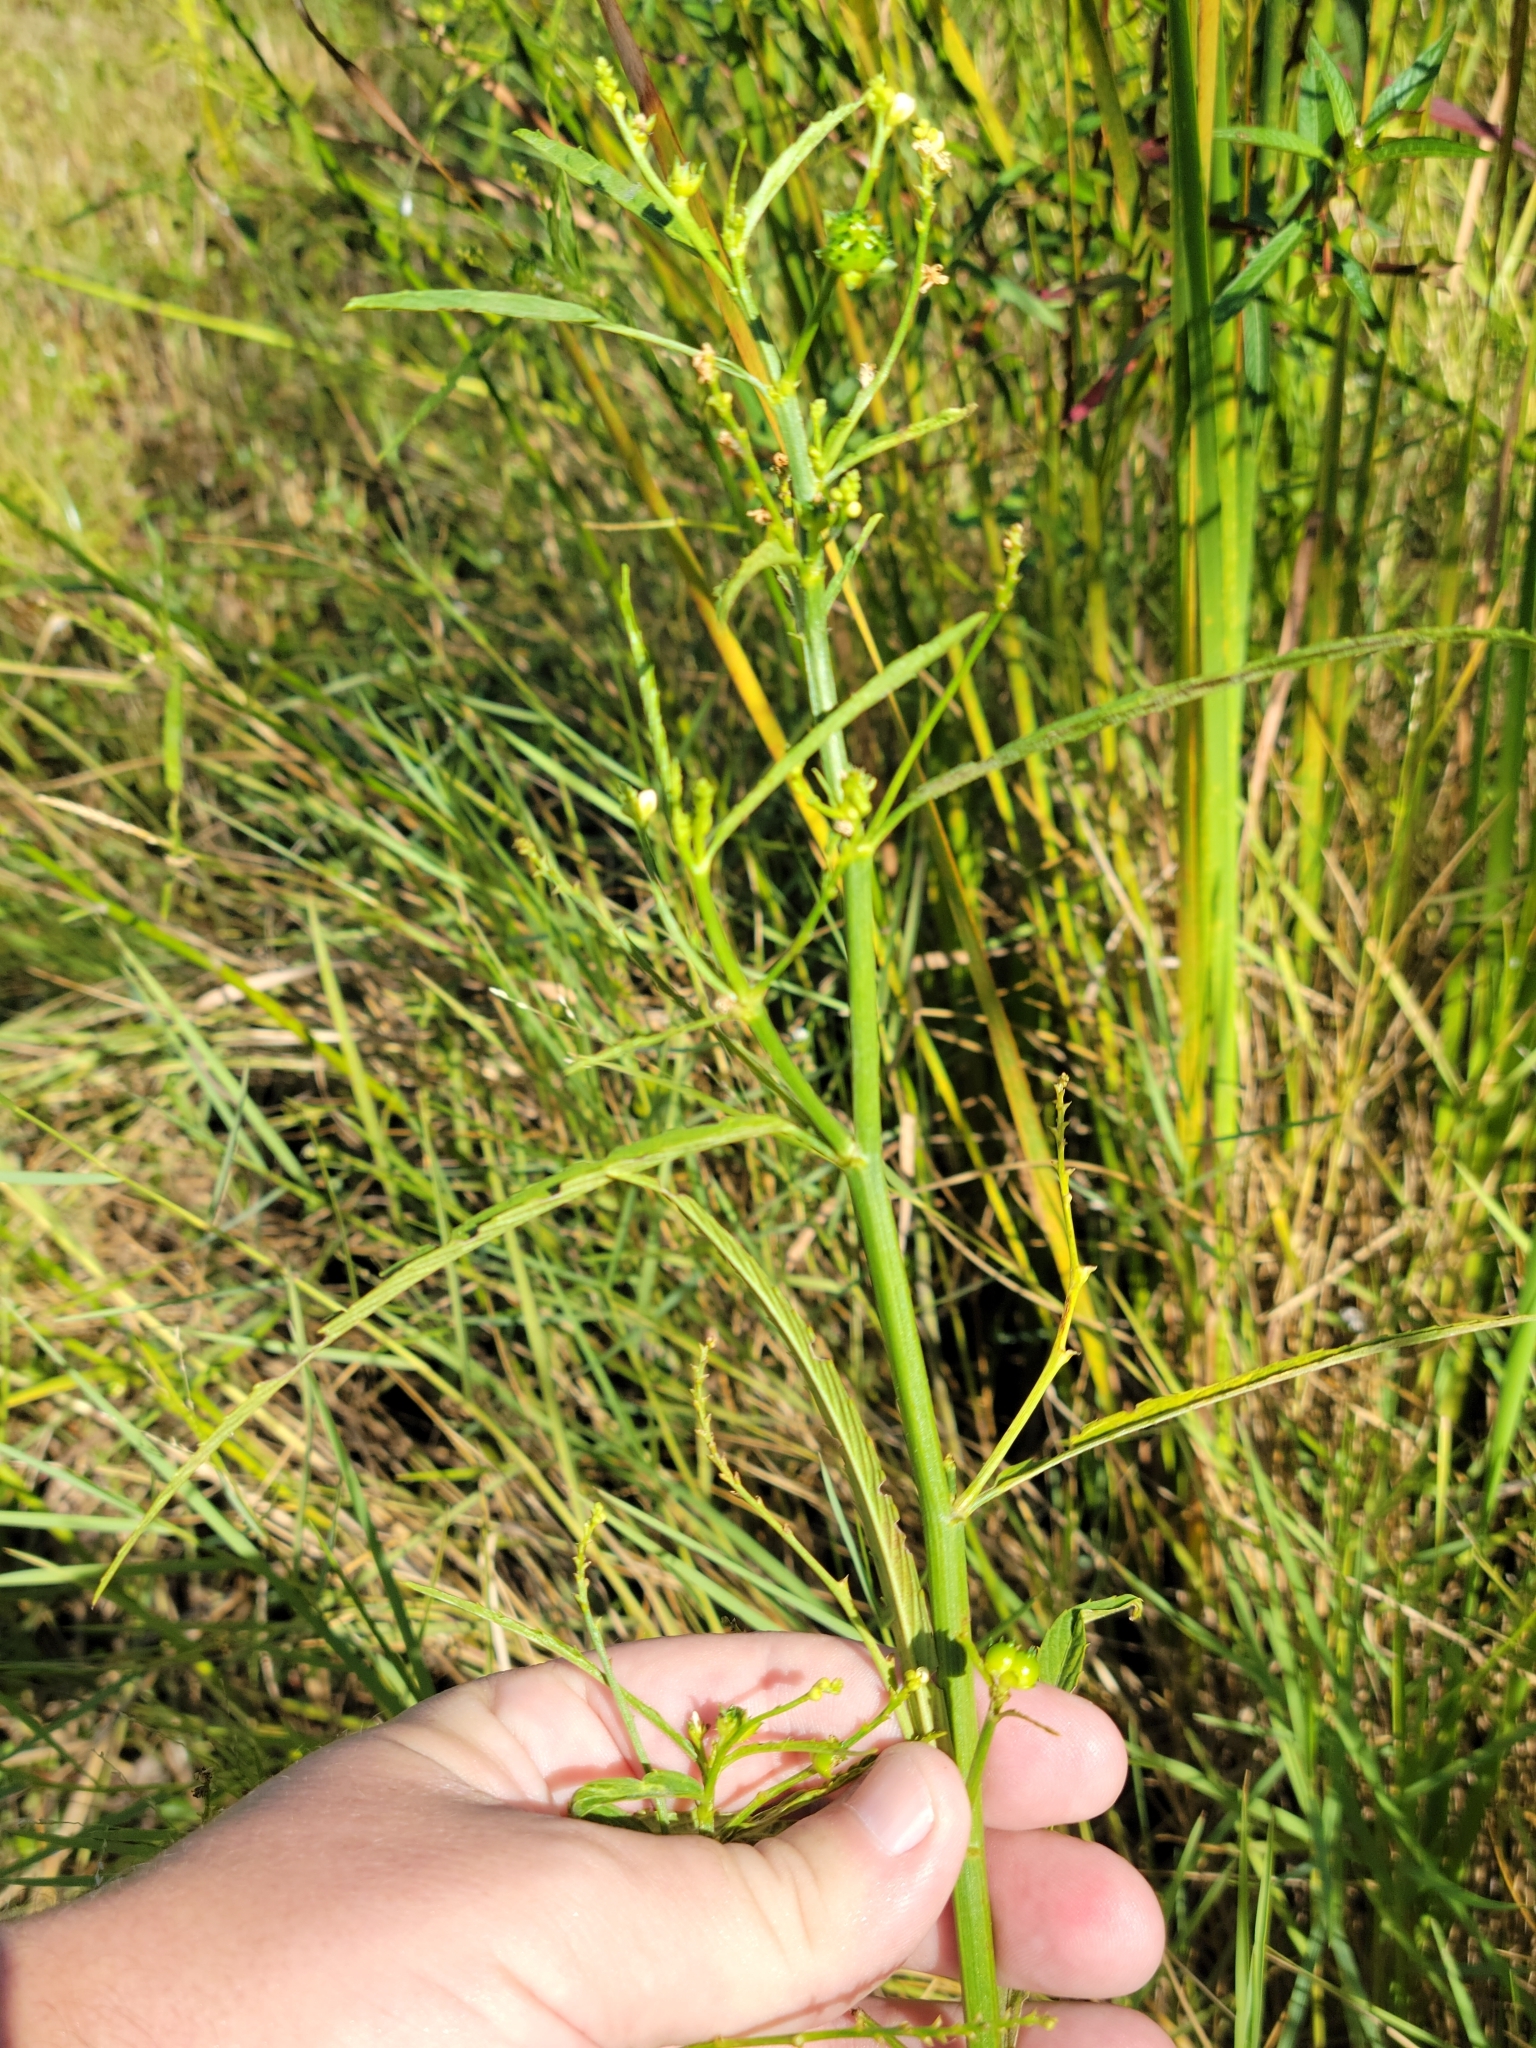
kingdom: Plantae
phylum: Tracheophyta
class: Magnoliopsida
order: Malpighiales
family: Euphorbiaceae
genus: Caperonia
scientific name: Caperonia castaneifolia
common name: Chestnutleaf false croton
